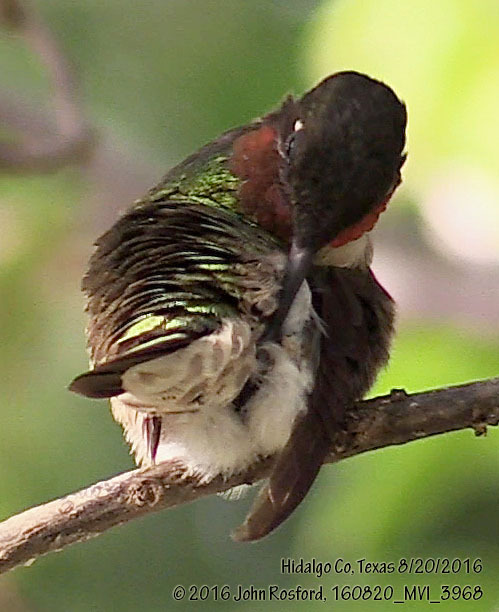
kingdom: Animalia
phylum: Chordata
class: Aves
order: Apodiformes
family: Trochilidae
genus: Archilochus
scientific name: Archilochus colubris
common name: Ruby-throated hummingbird
